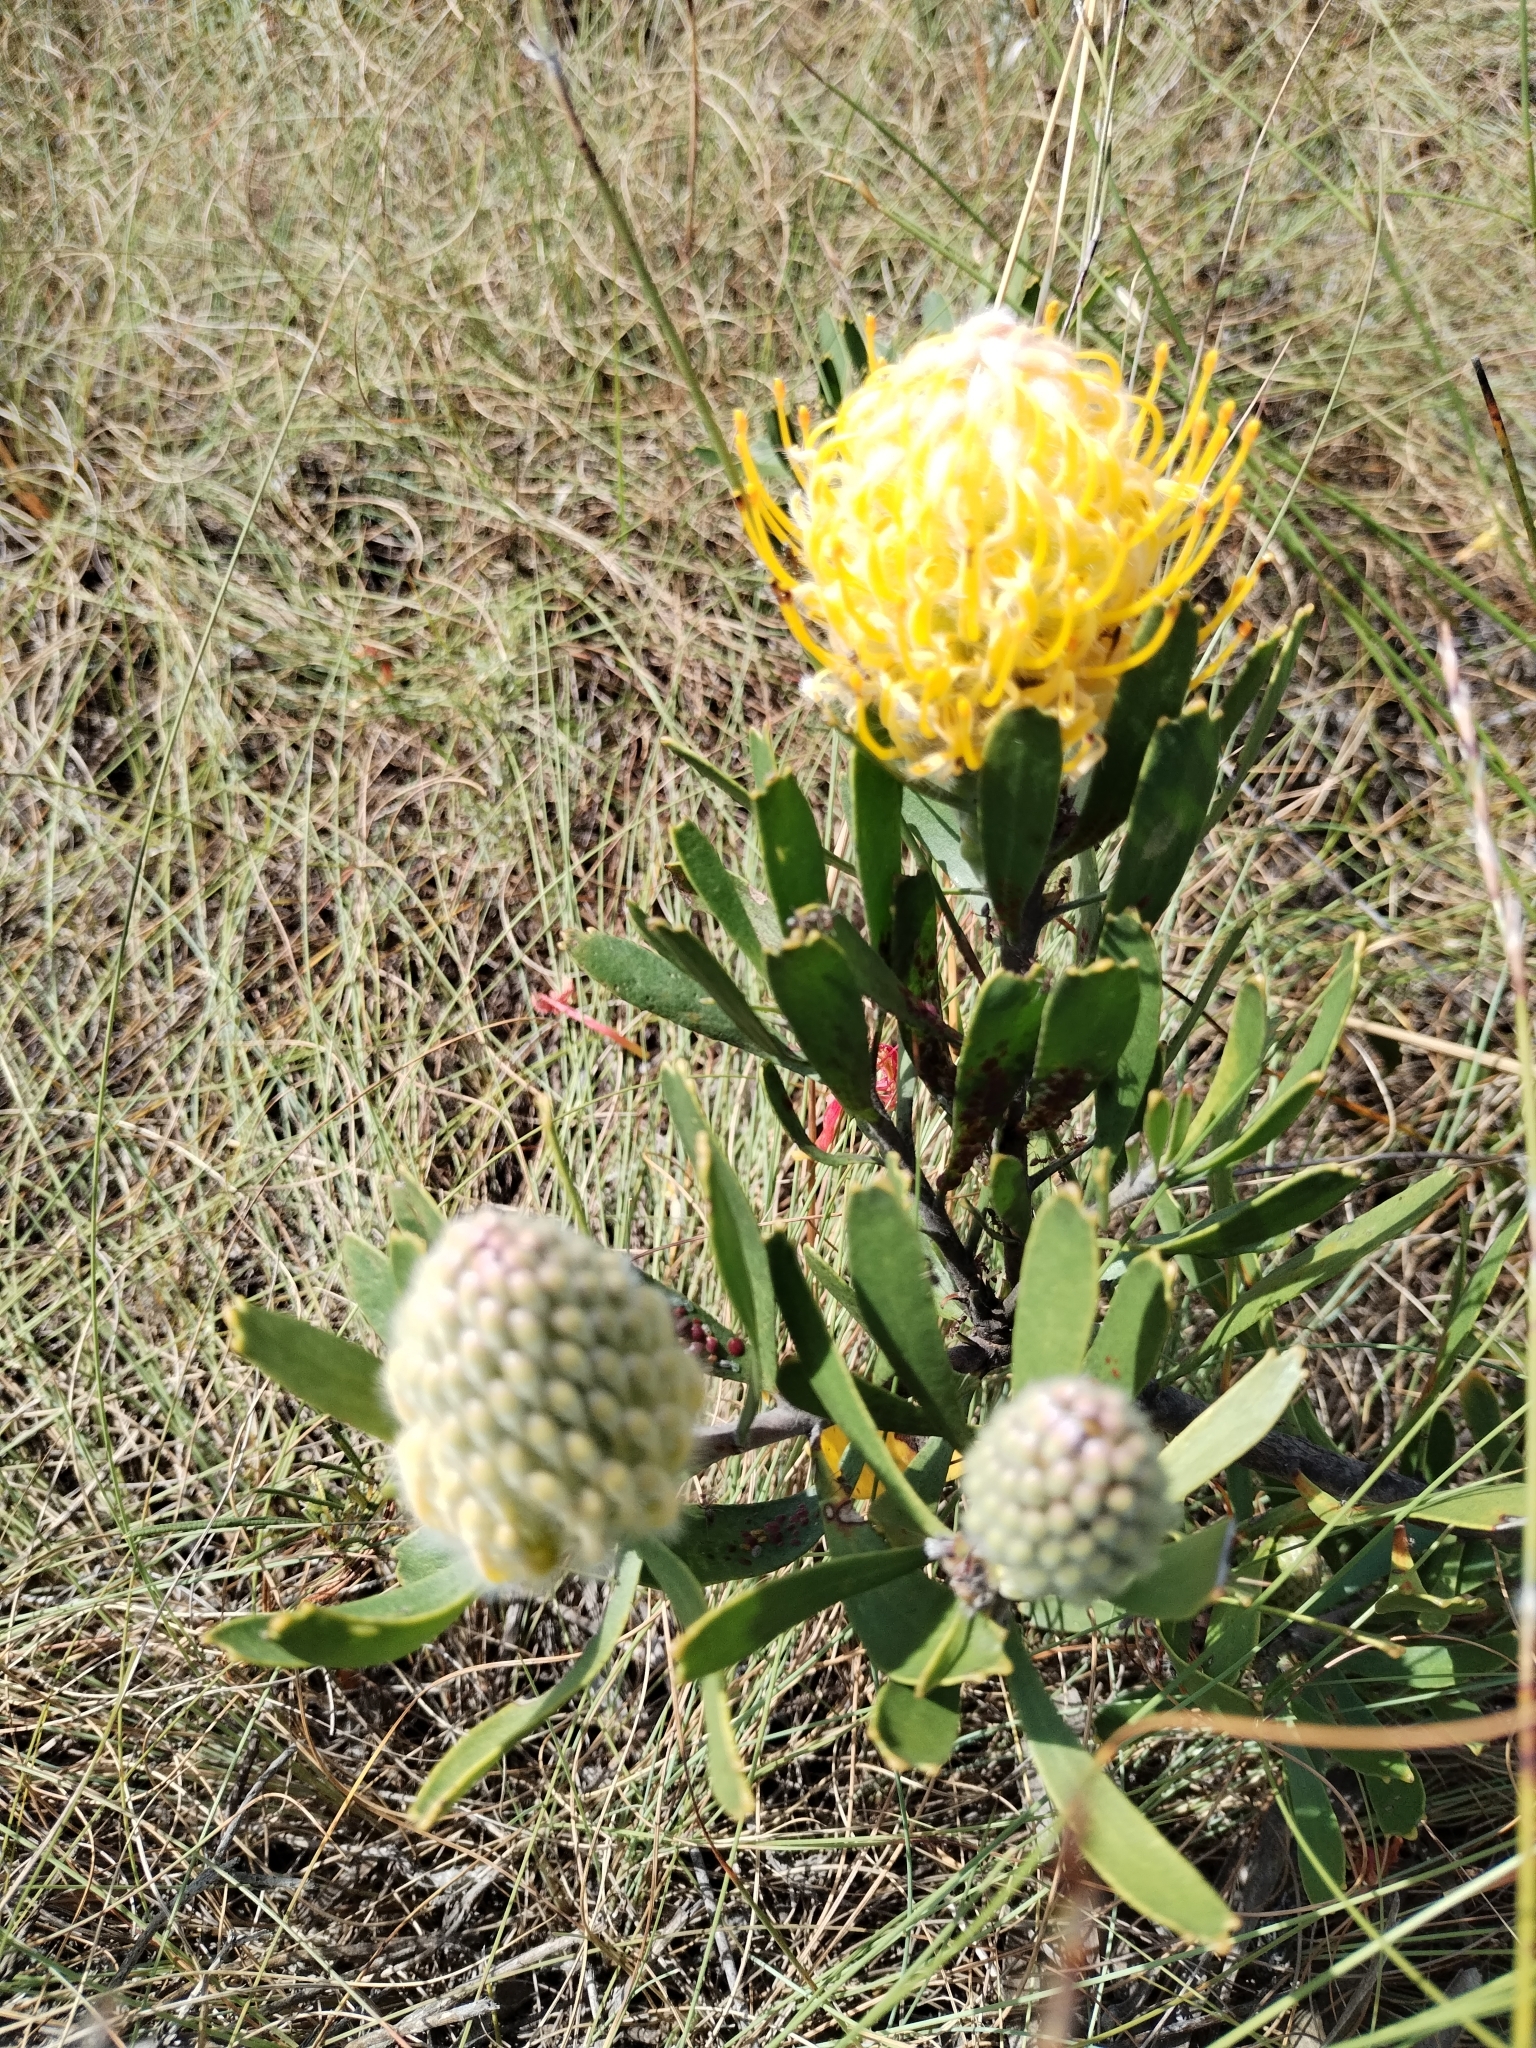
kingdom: Plantae
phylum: Tracheophyta
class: Magnoliopsida
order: Proteales
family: Proteaceae
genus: Leucospermum
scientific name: Leucospermum cuneiforme
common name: Common pincushion
